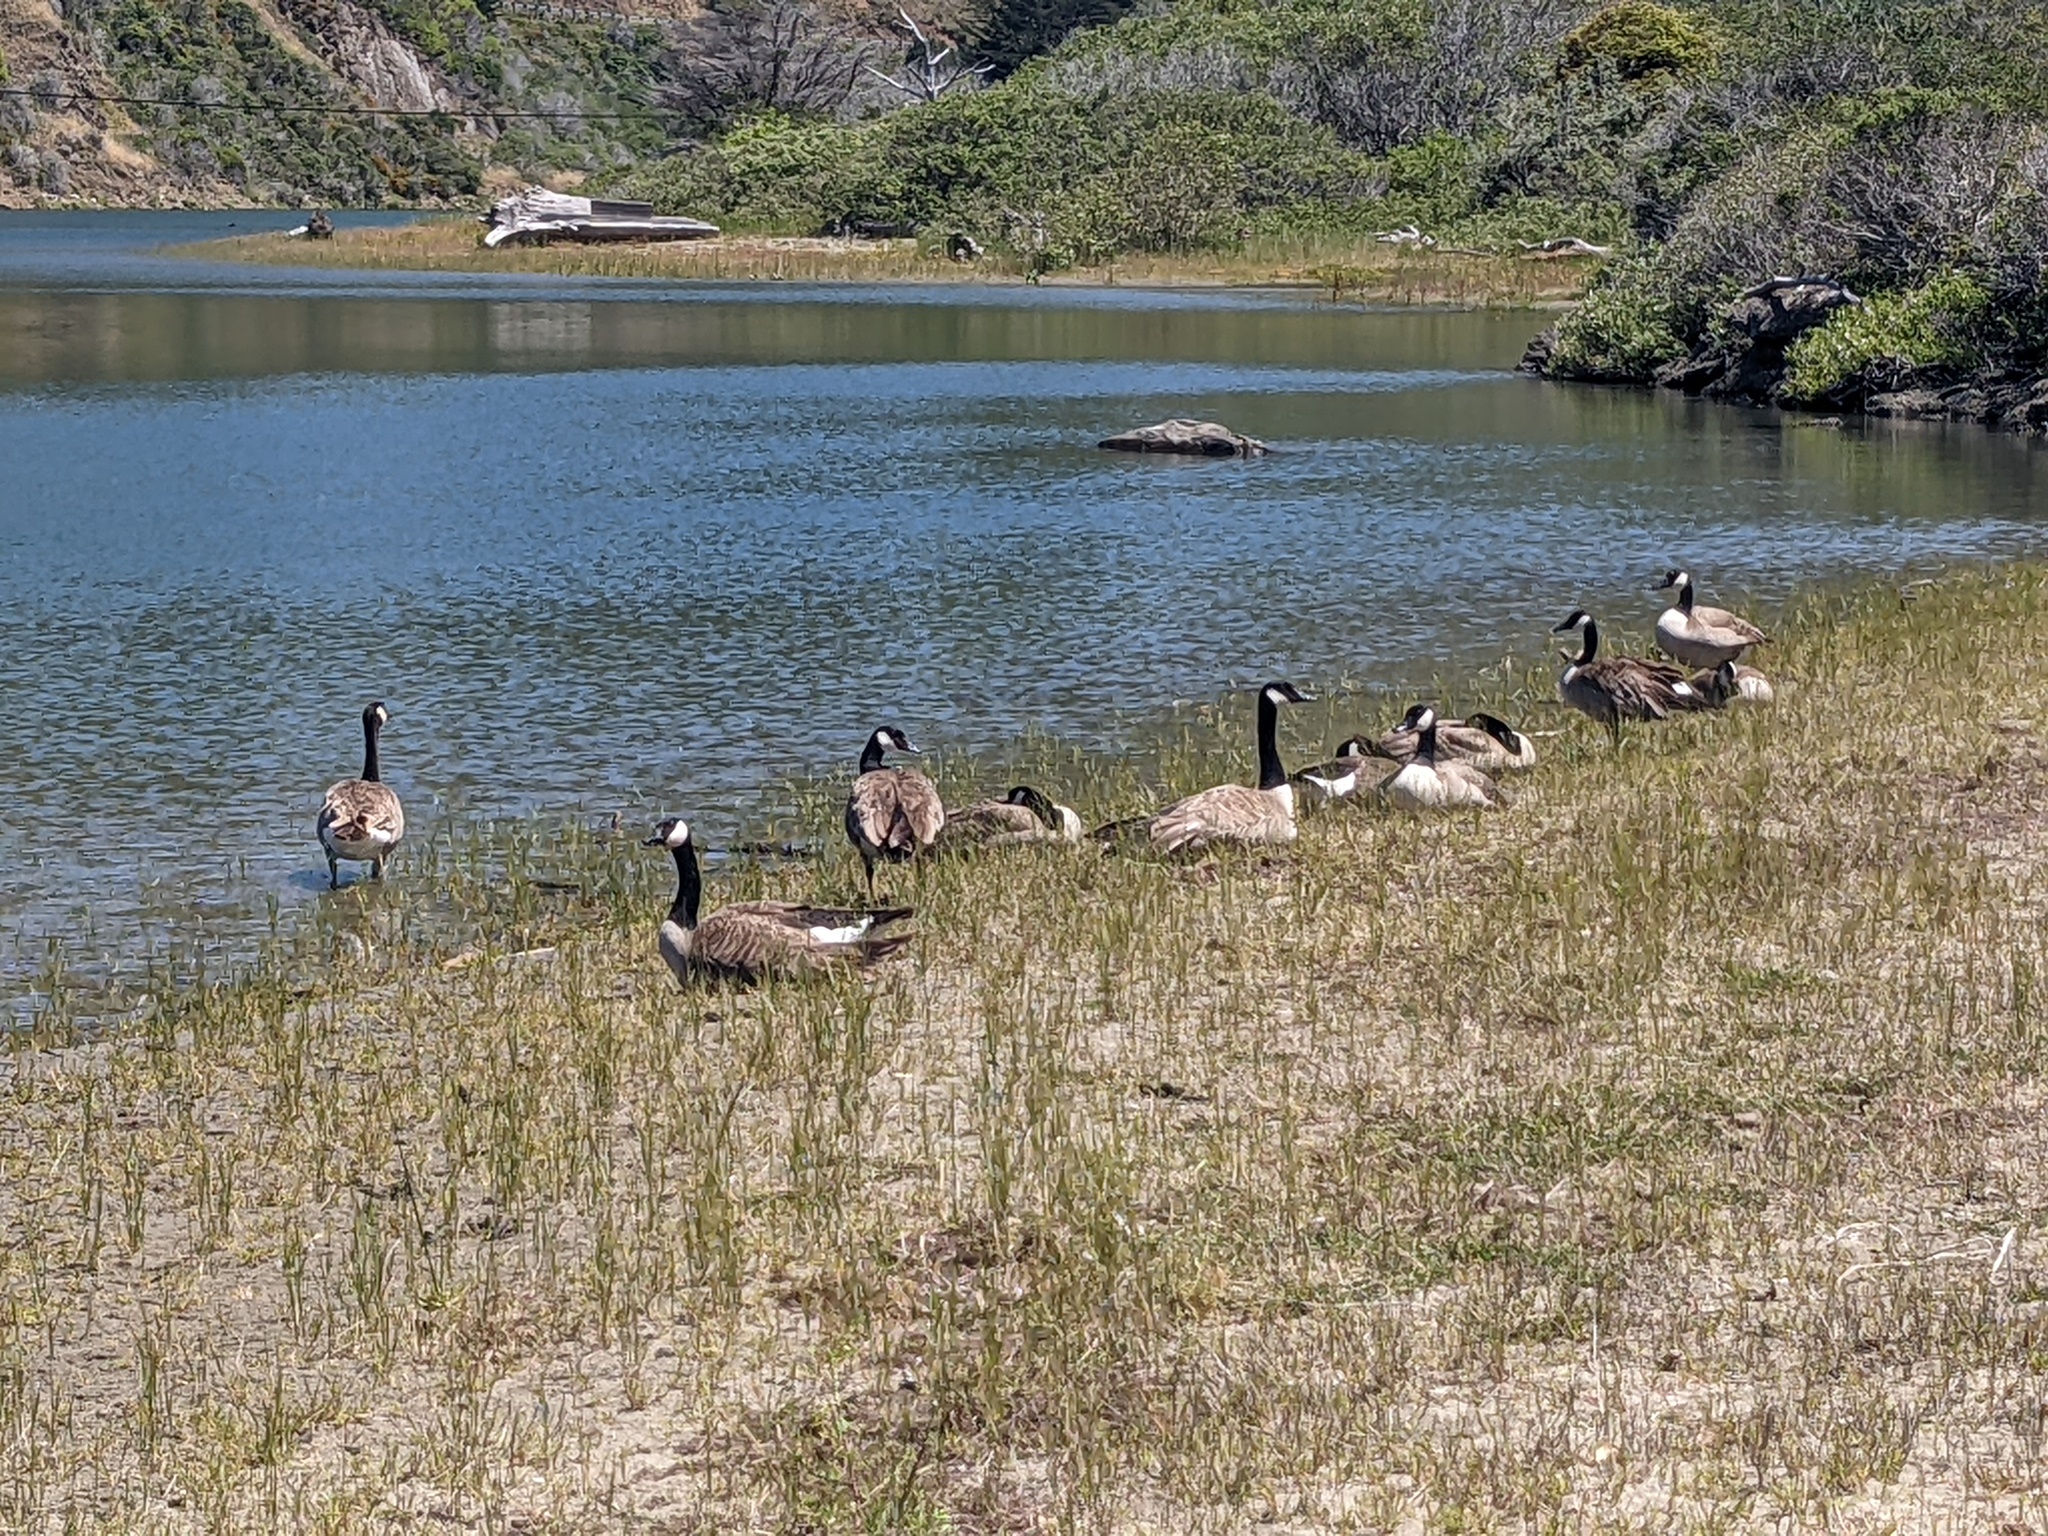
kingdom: Animalia
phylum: Chordata
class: Aves
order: Anseriformes
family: Anatidae
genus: Branta
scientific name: Branta canadensis
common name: Canada goose
